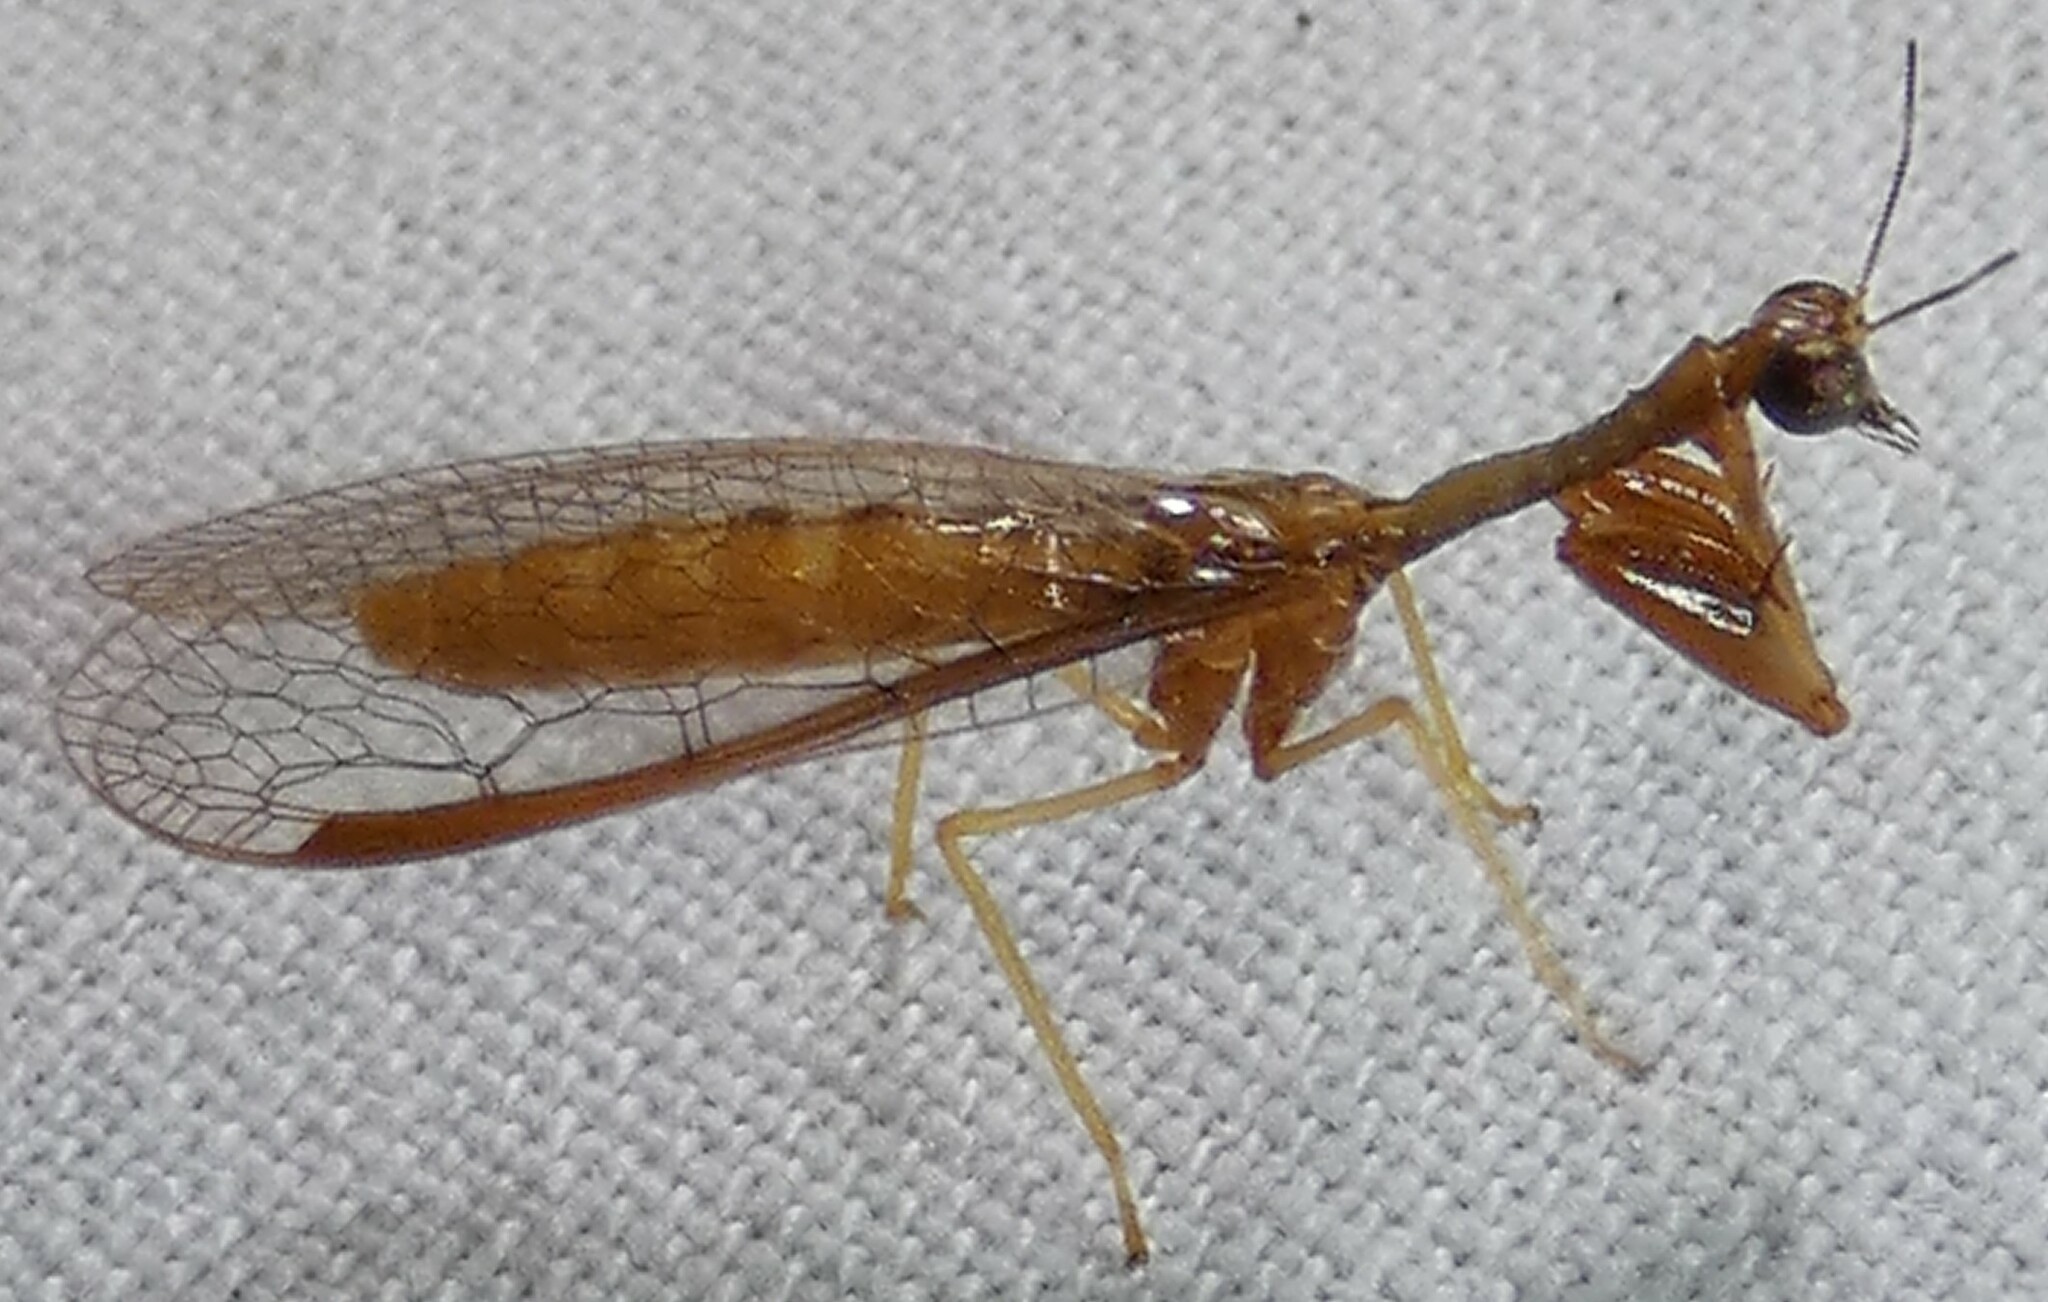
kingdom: Animalia
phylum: Arthropoda
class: Insecta
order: Neuroptera
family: Mantispidae
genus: Dicromantispa
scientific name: Dicromantispa sayi
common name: Say's mantidfly
